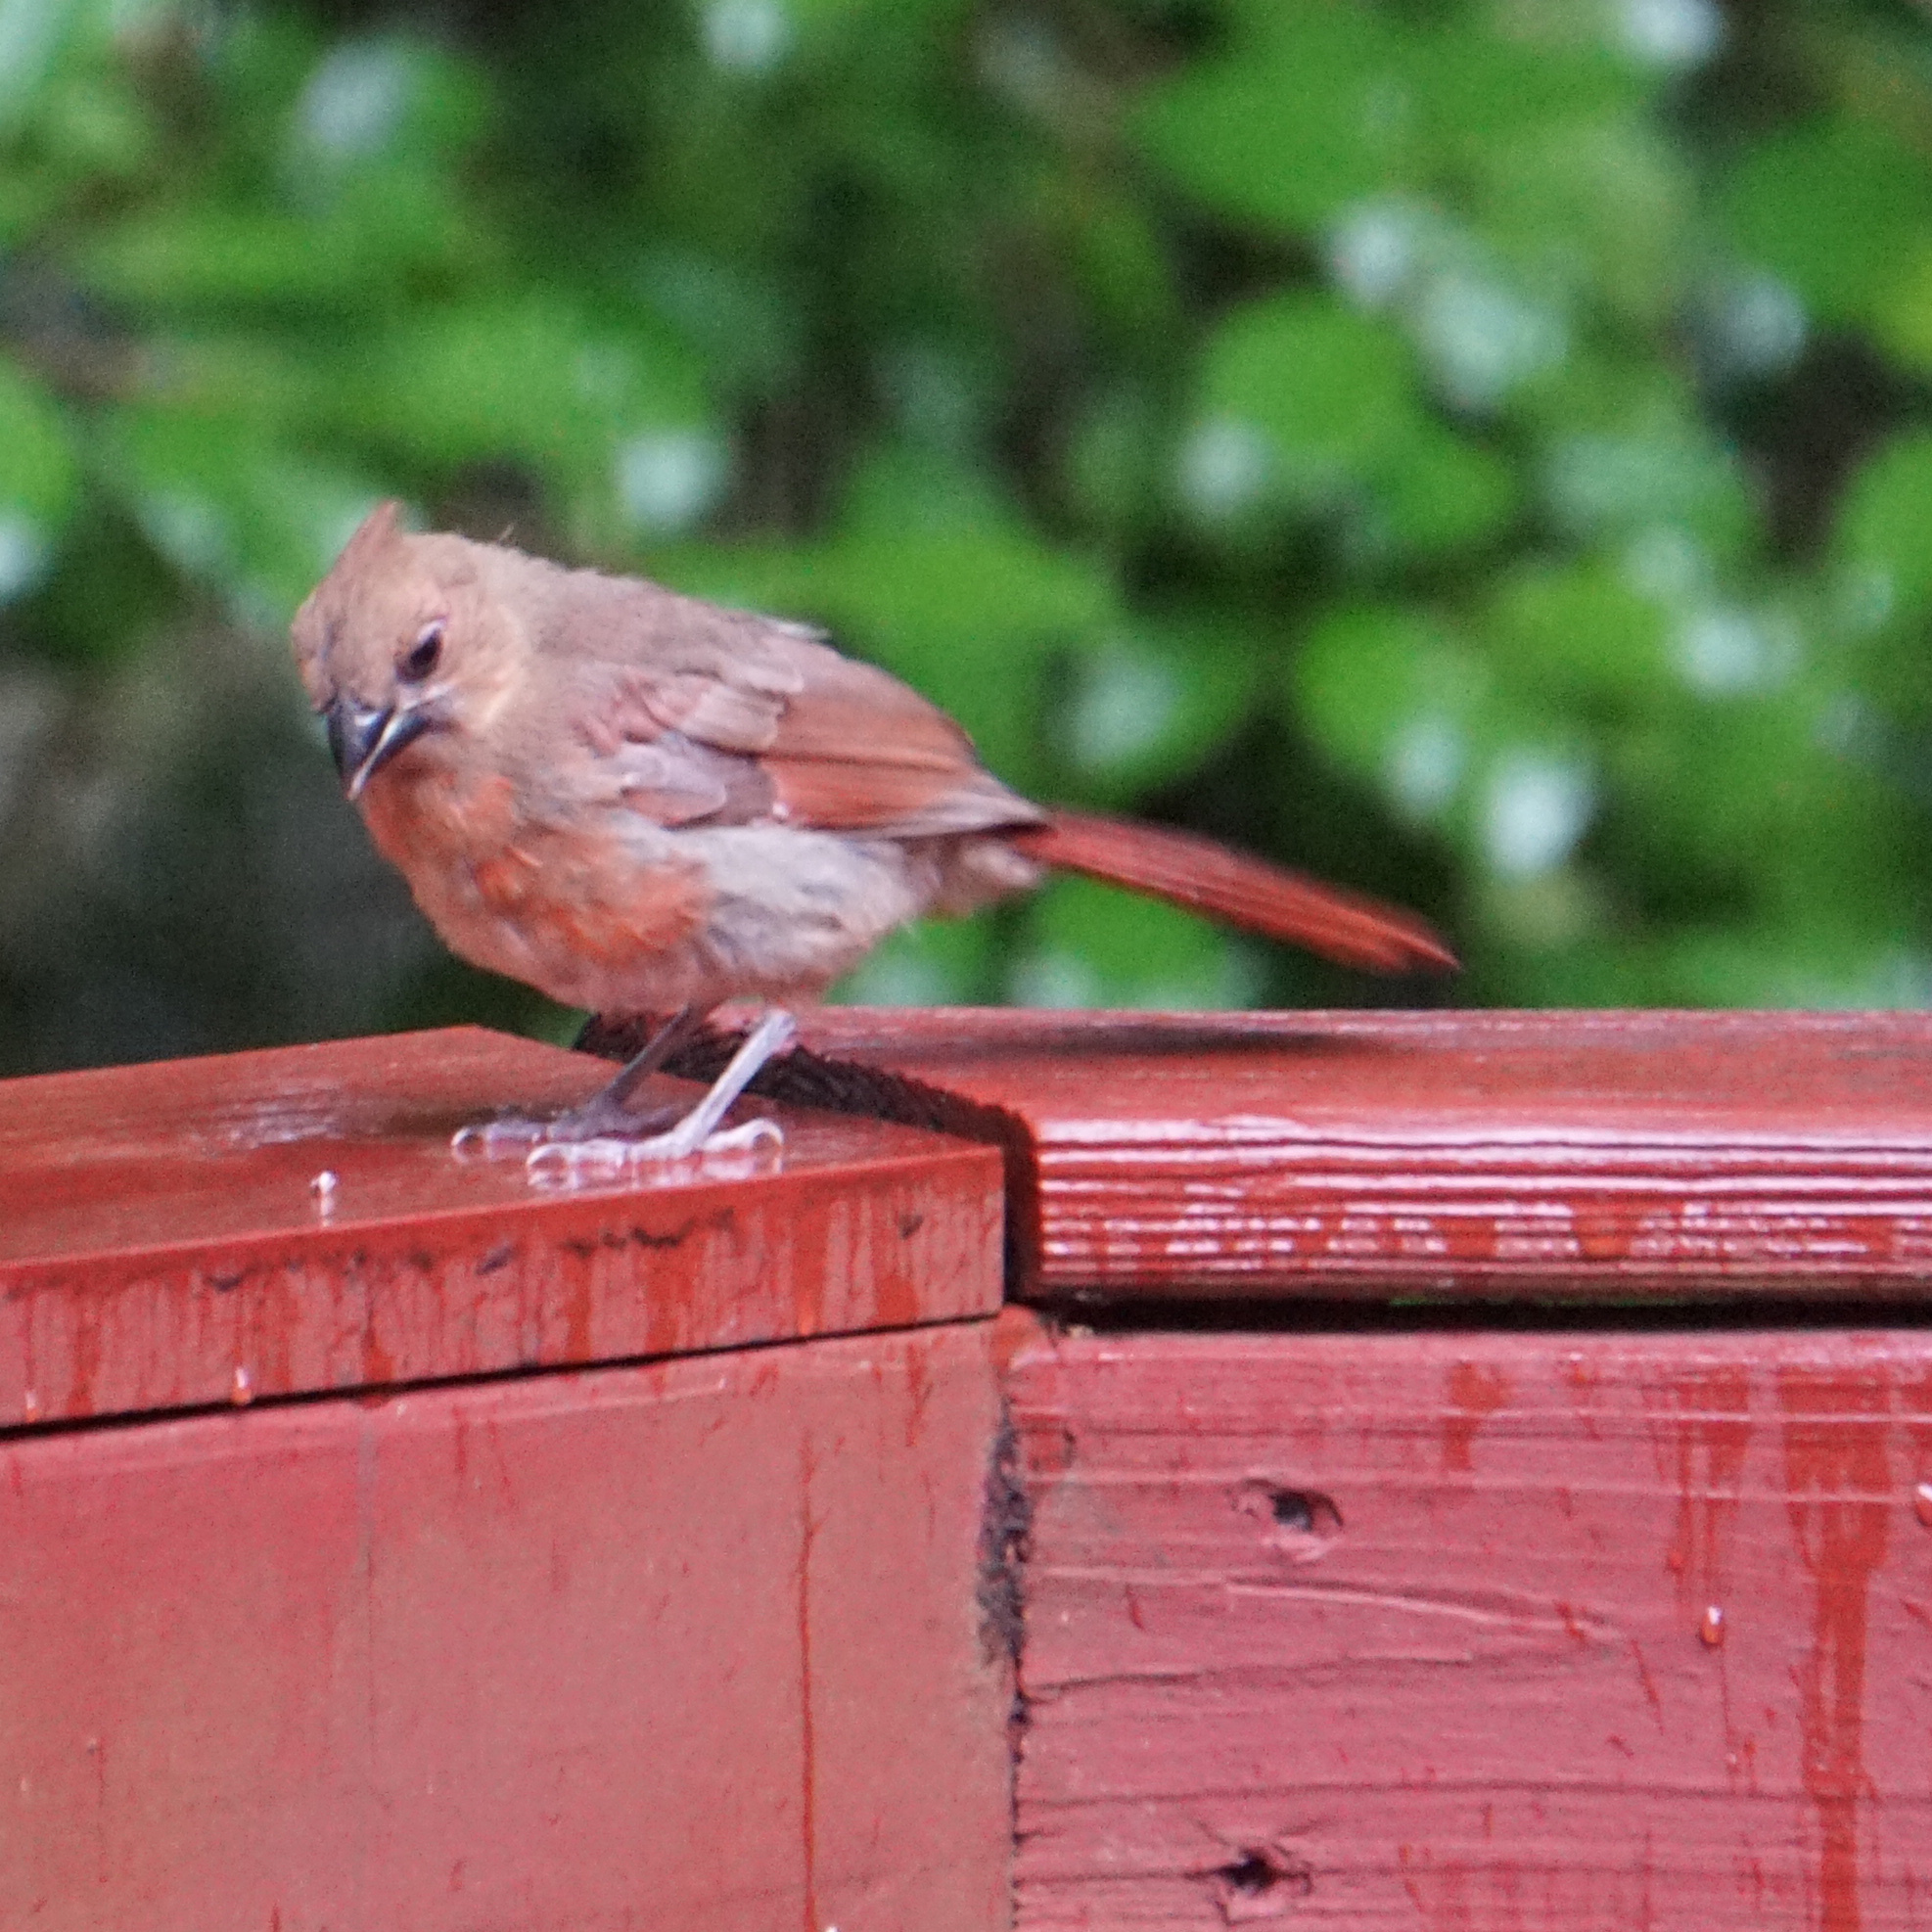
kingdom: Animalia
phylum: Chordata
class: Aves
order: Passeriformes
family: Cardinalidae
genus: Cardinalis
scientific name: Cardinalis cardinalis
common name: Northern cardinal
